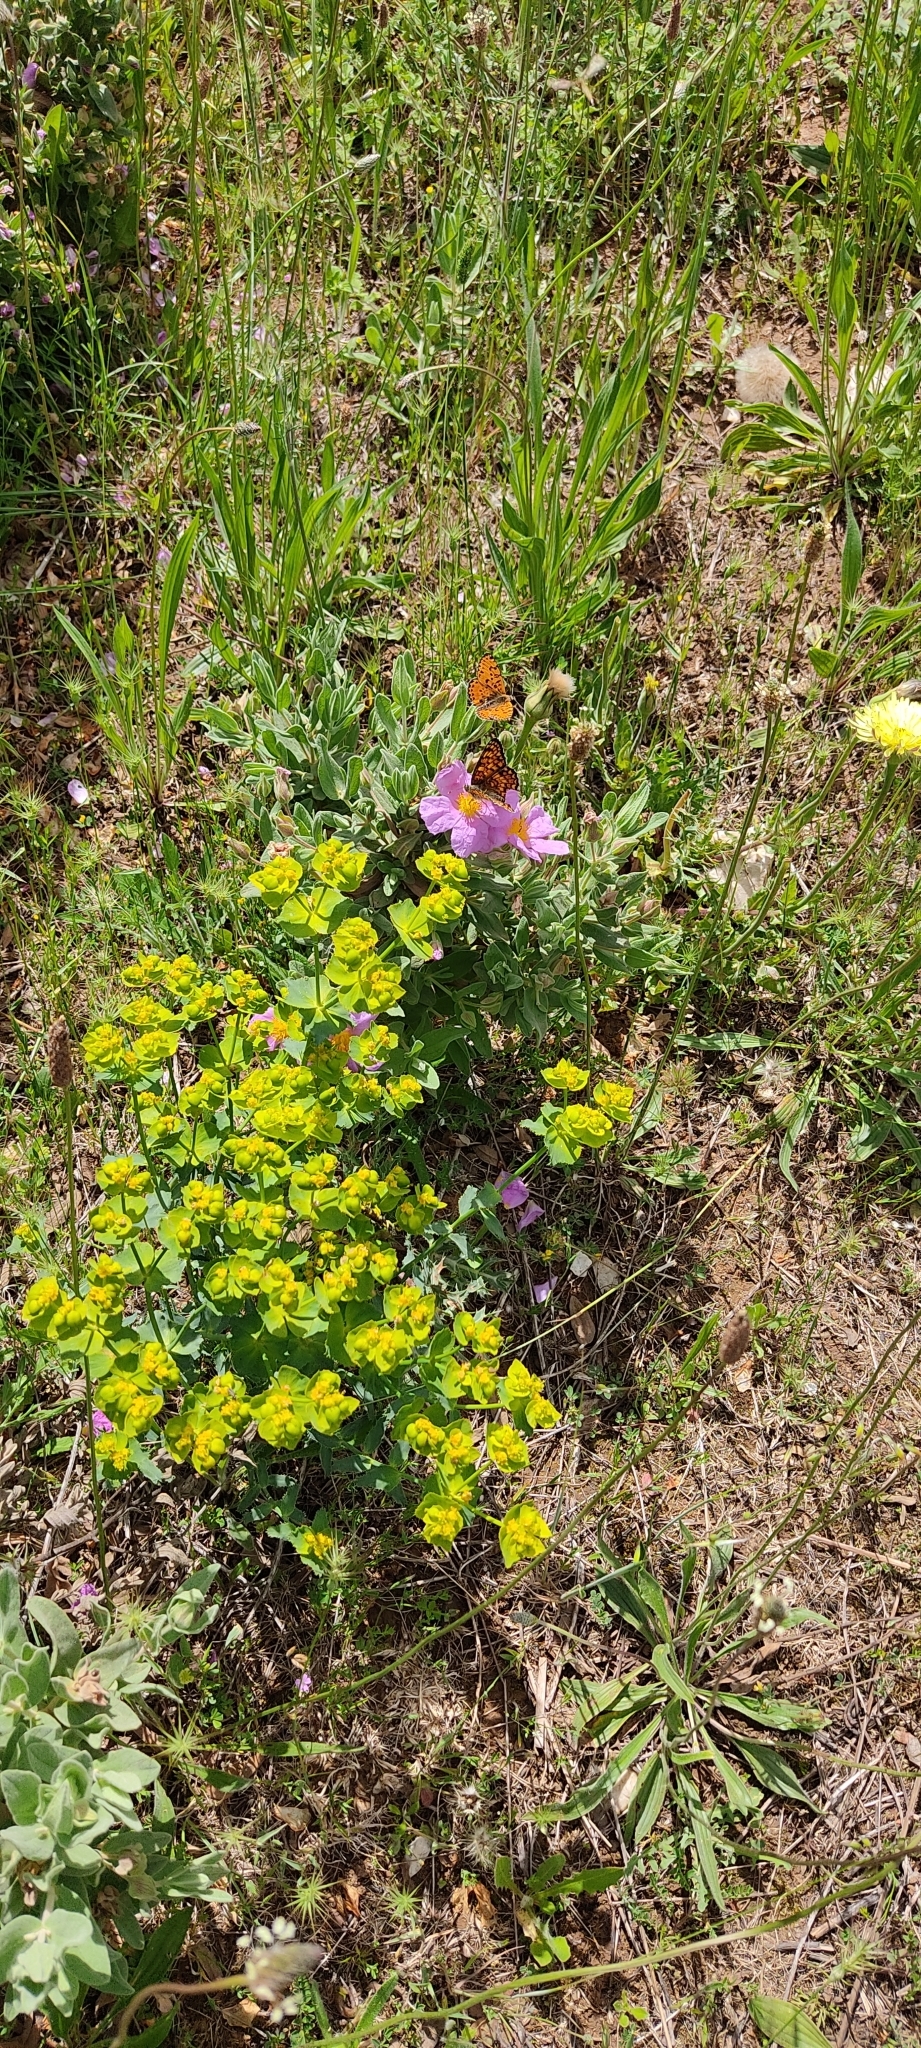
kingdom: Animalia
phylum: Arthropoda
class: Insecta
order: Lepidoptera
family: Nymphalidae
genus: Melitaea
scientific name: Melitaea phoebe
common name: Knapweed fritillary
